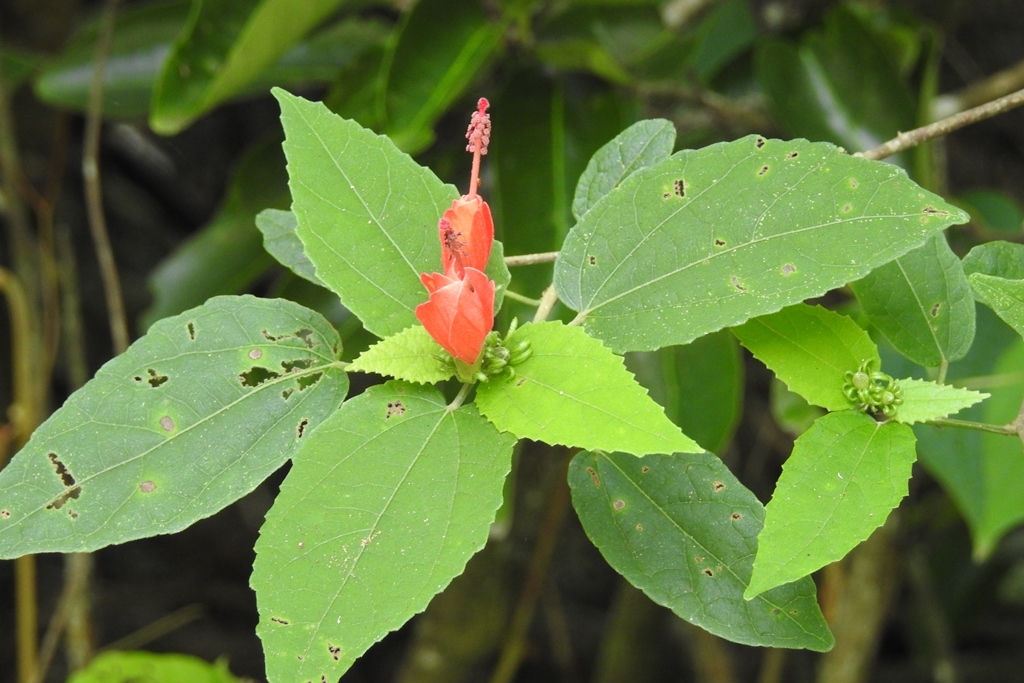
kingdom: Plantae
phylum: Tracheophyta
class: Magnoliopsida
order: Malvales
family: Malvaceae
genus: Malvaviscus
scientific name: Malvaviscus arboreus
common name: Wax mallow
